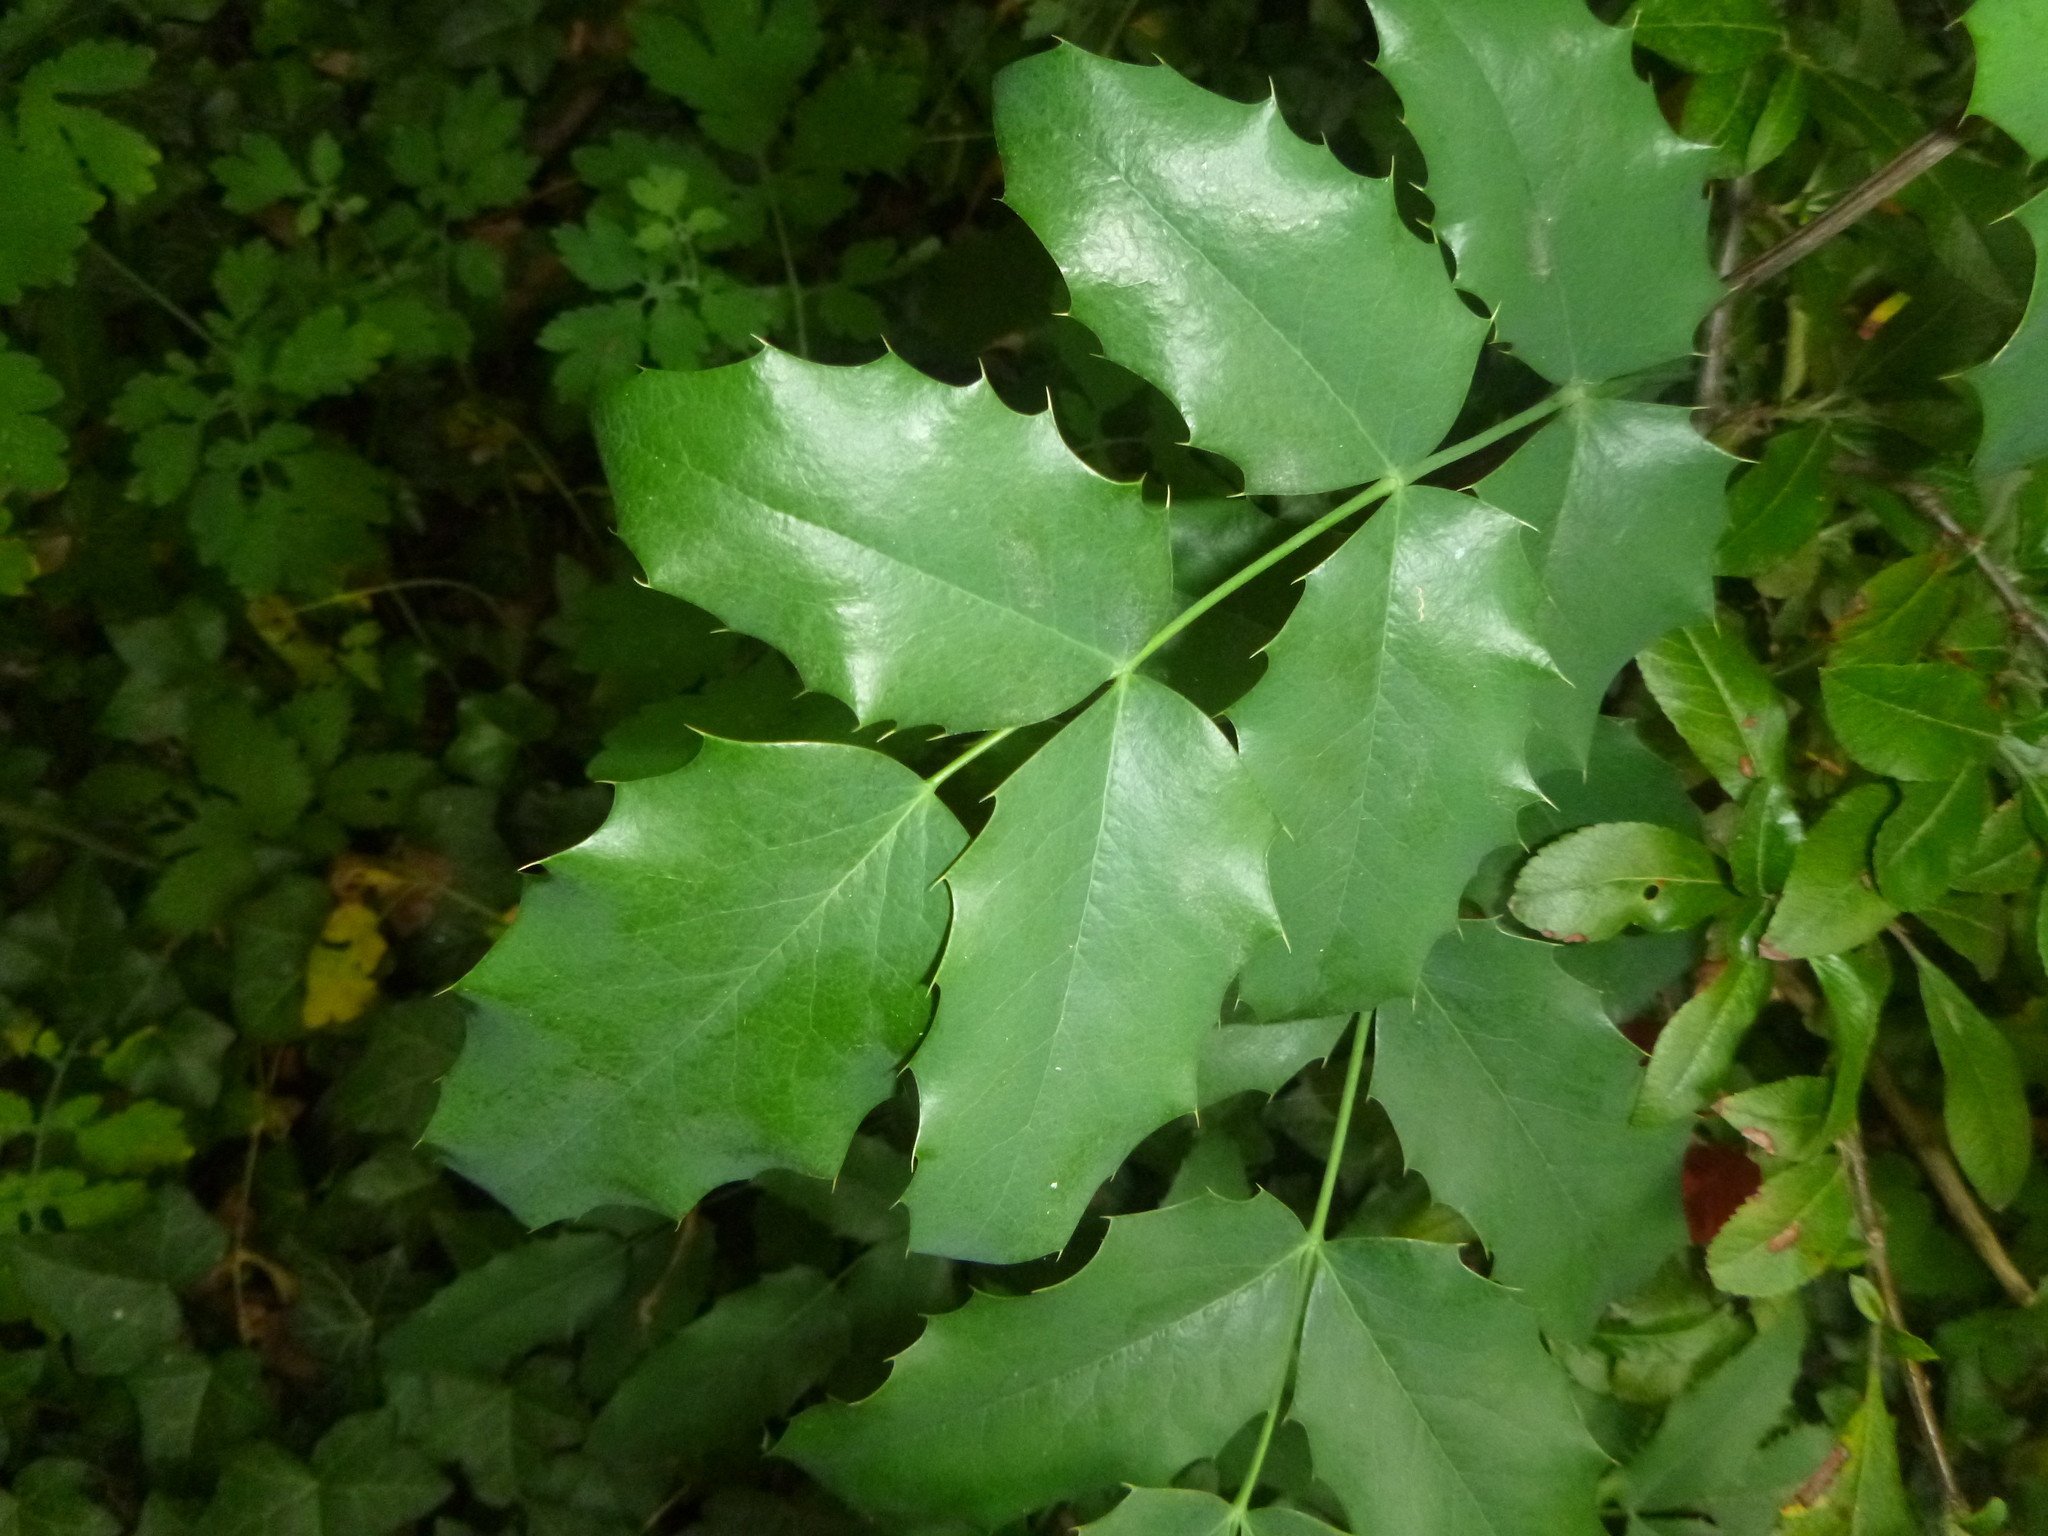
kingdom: Plantae
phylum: Tracheophyta
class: Magnoliopsida
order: Ranunculales
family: Berberidaceae
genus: Mahonia
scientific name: Mahonia aquifolium
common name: Oregon-grape
